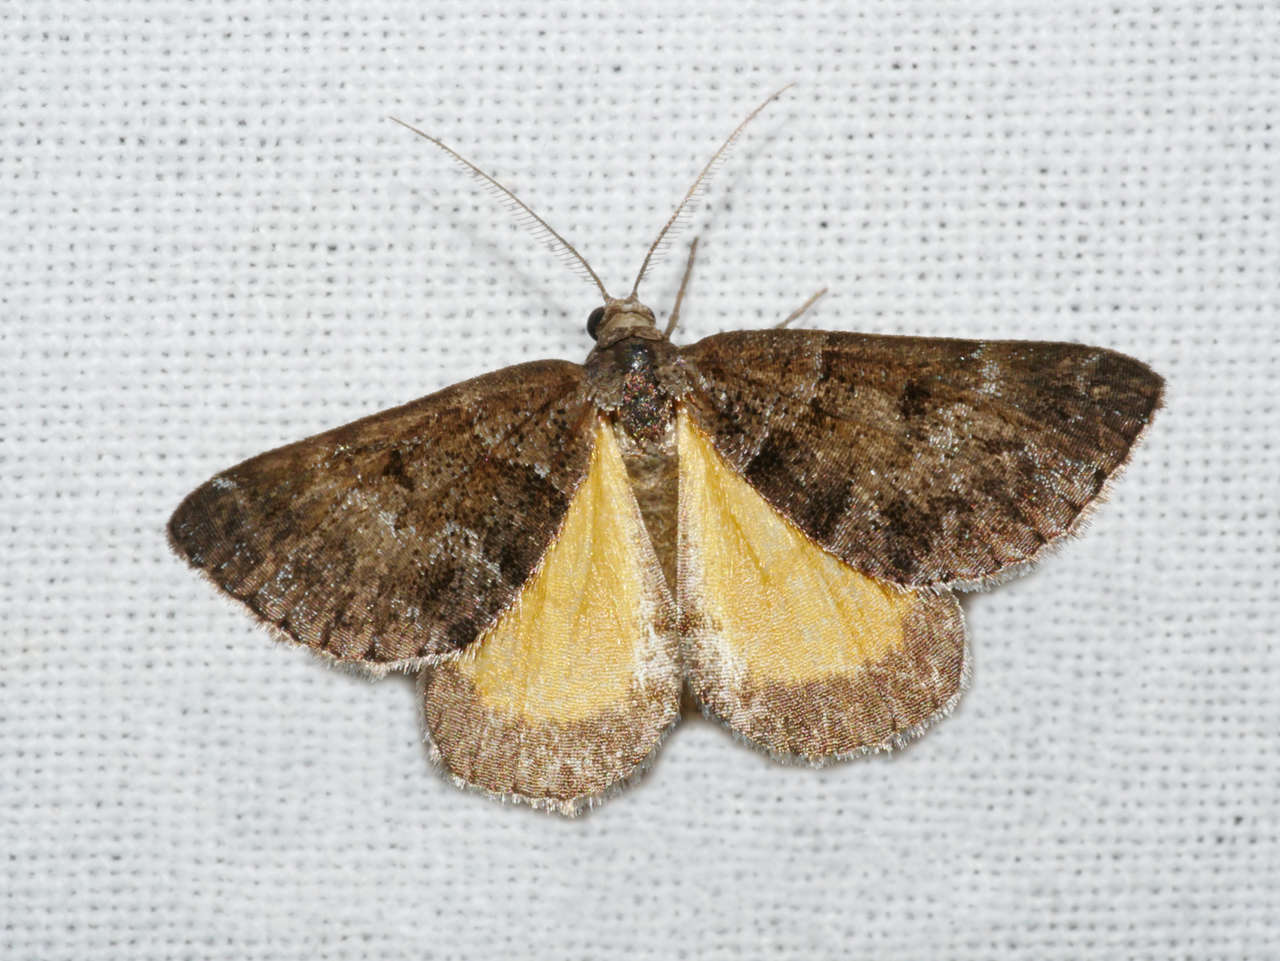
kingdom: Animalia
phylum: Arthropoda
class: Insecta
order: Lepidoptera
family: Geometridae
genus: Dichromodes
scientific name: Dichromodes ainaria
